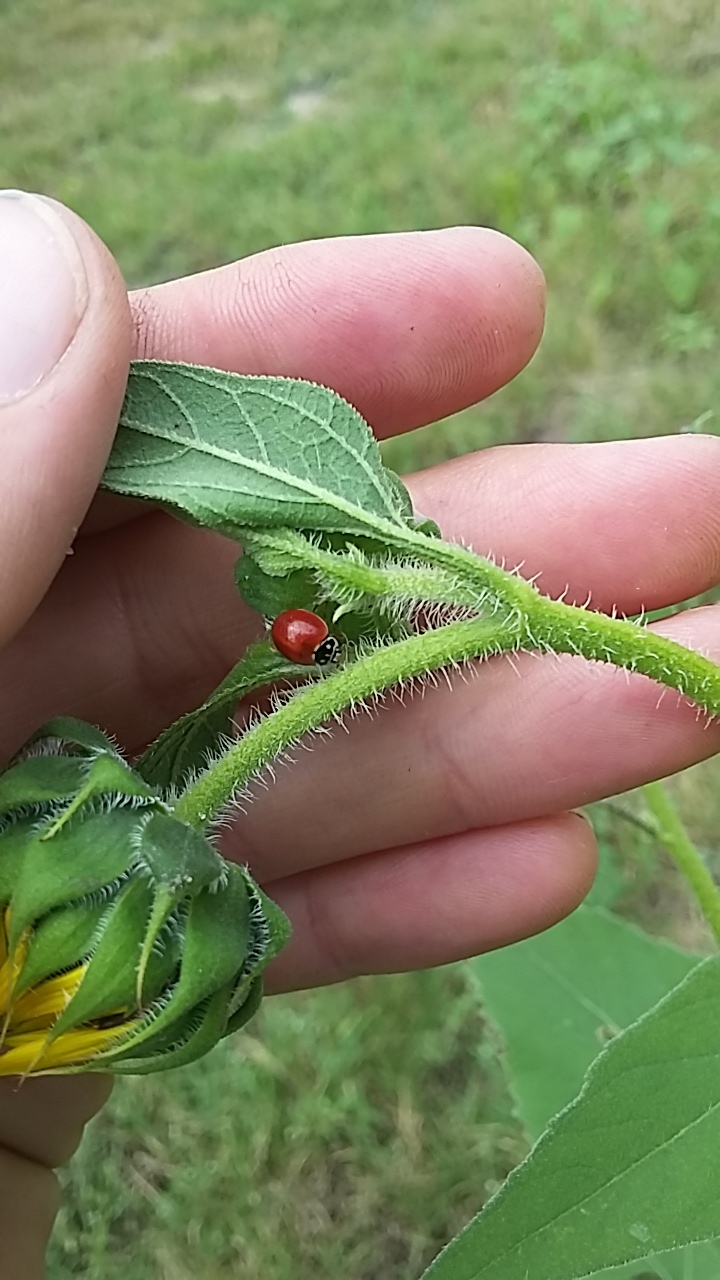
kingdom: Animalia
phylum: Arthropoda
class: Insecta
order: Coleoptera
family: Coccinellidae
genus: Cycloneda
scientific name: Cycloneda sanguinea
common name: Ladybird beetle
